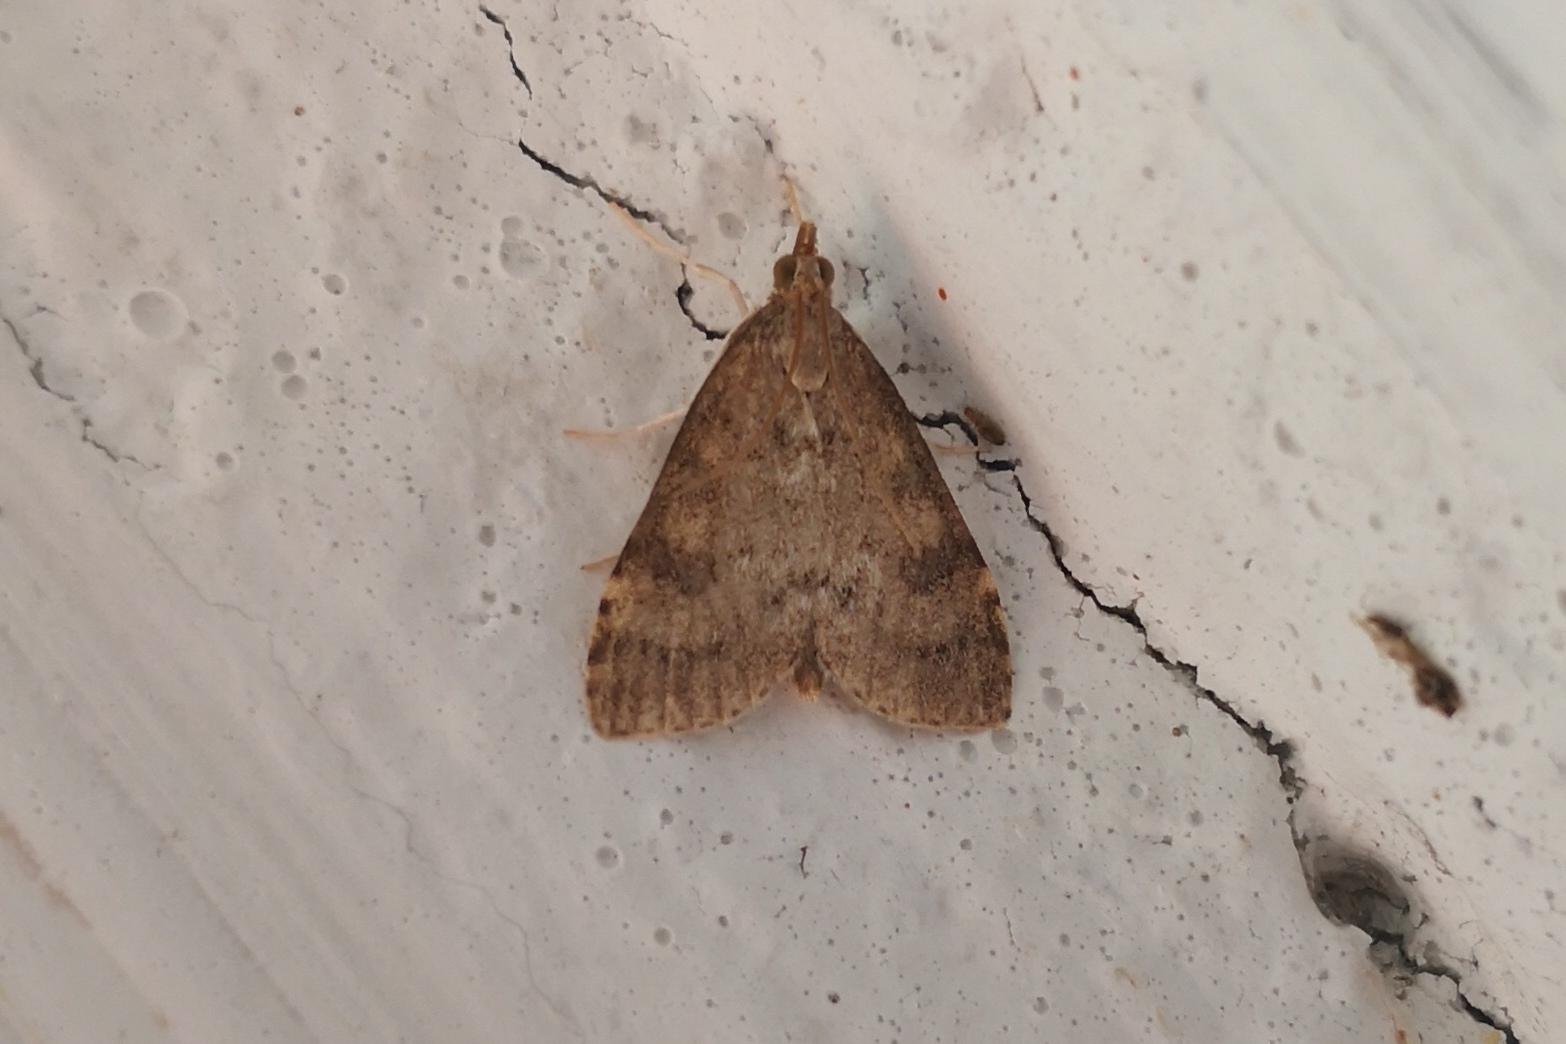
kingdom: Animalia
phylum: Arthropoda
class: Insecta
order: Lepidoptera
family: Crambidae
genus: Udea
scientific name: Udea prunalis
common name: Dusky pearl
